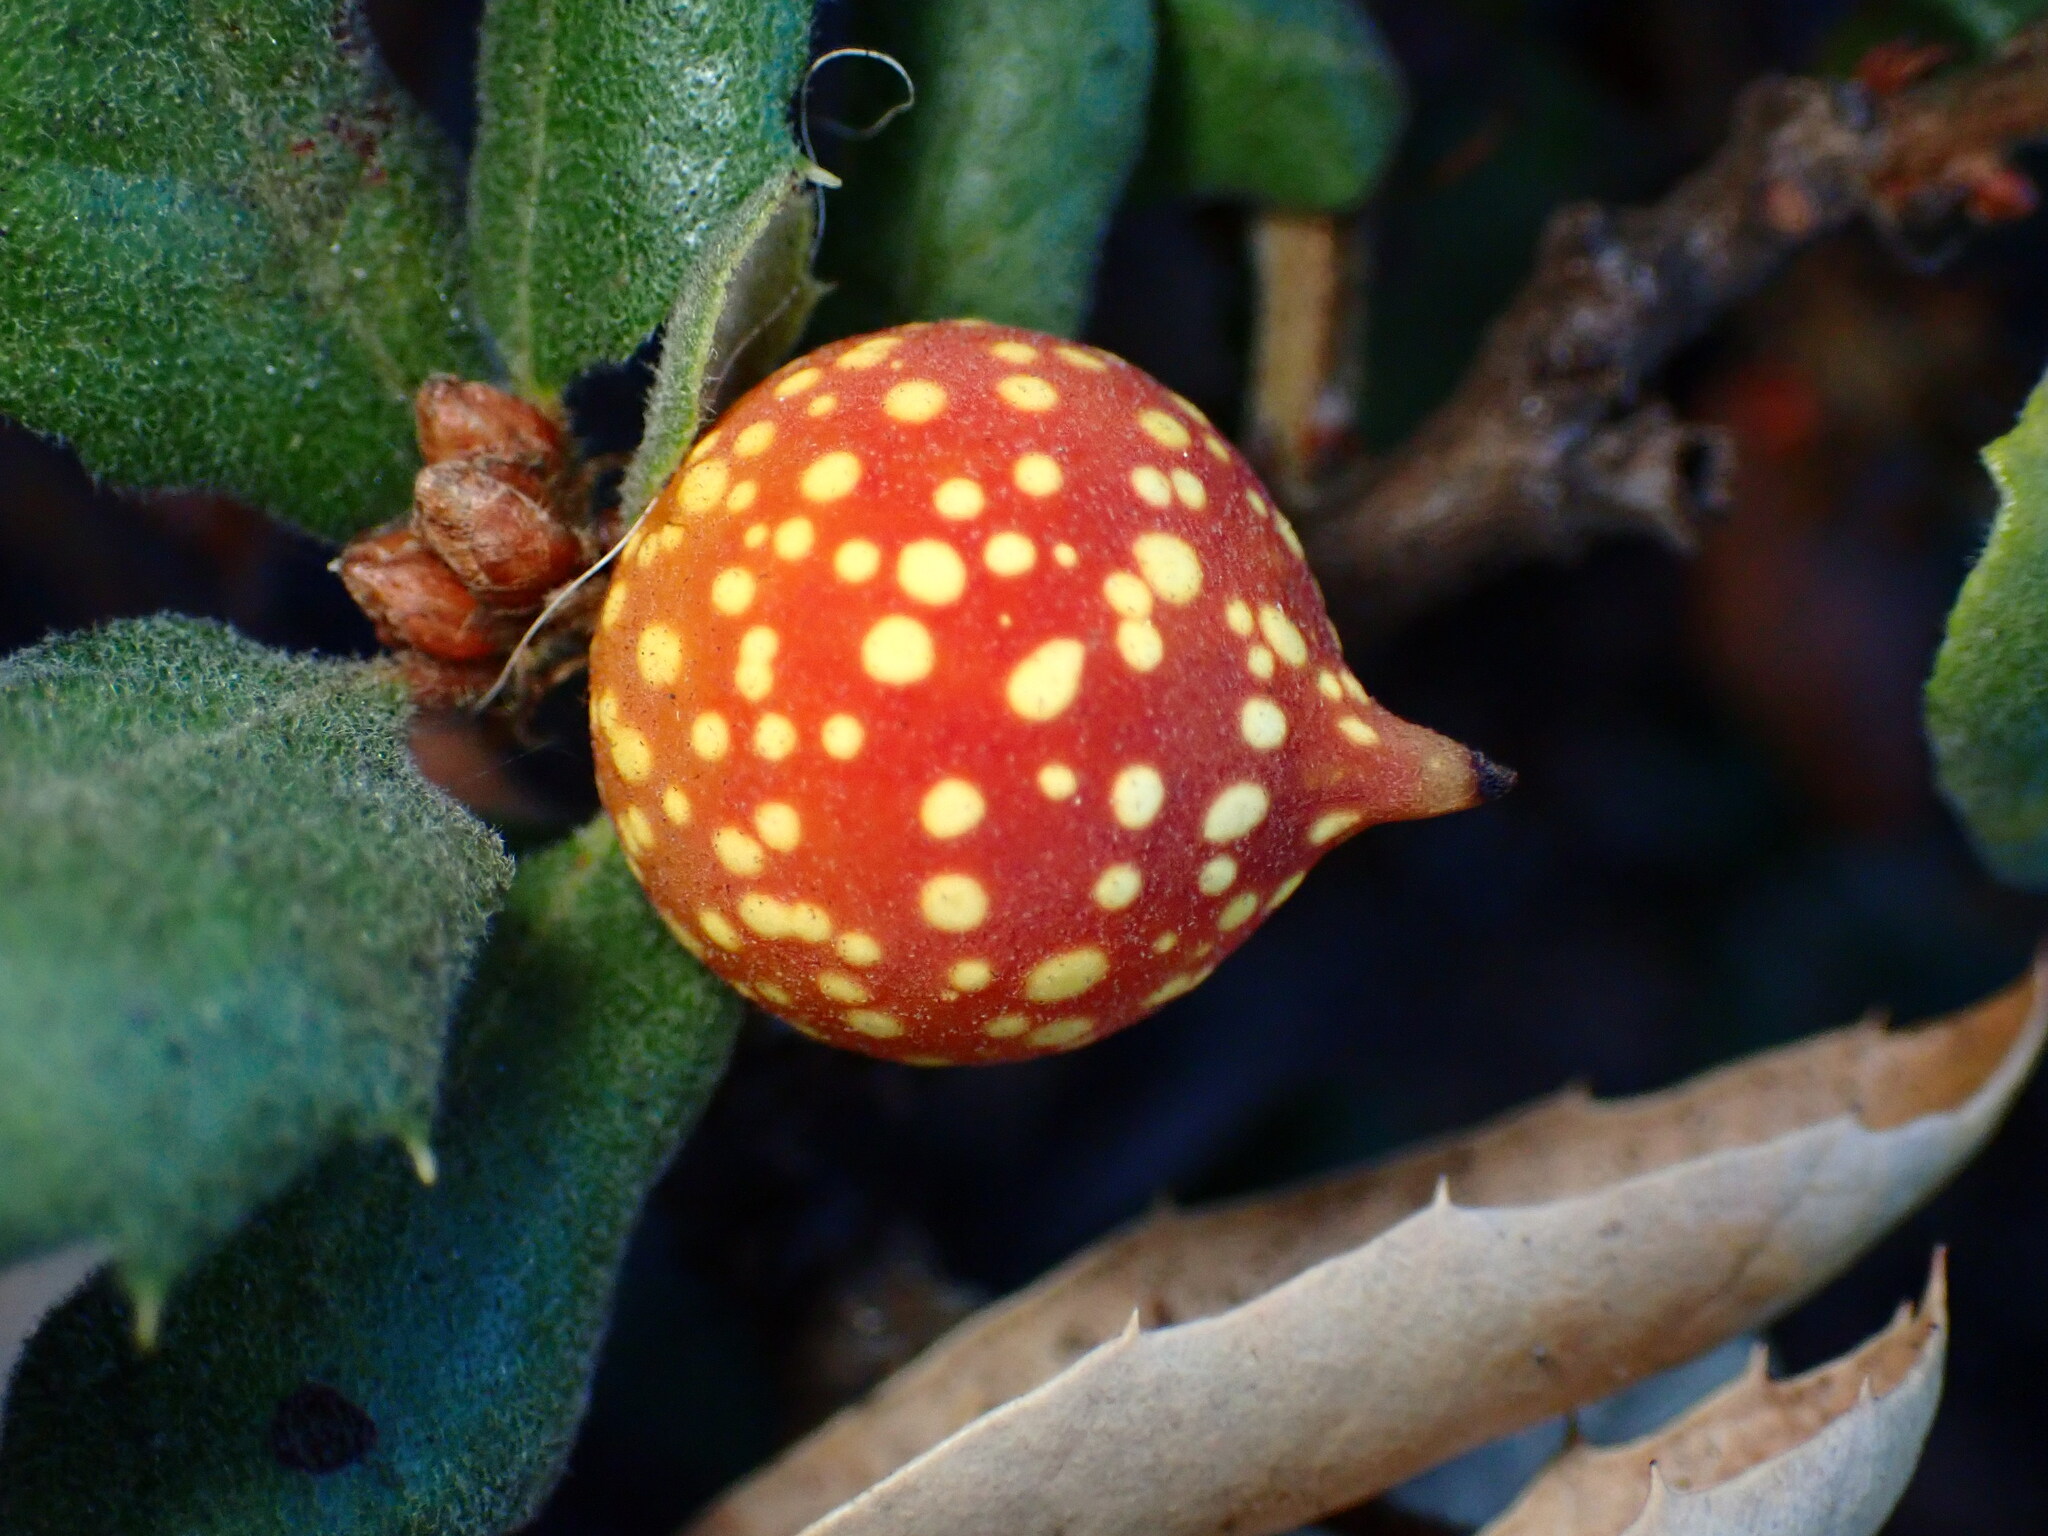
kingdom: Animalia
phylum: Arthropoda
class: Insecta
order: Hymenoptera
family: Cynipidae
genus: Burnettweldia
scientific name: Burnettweldia
